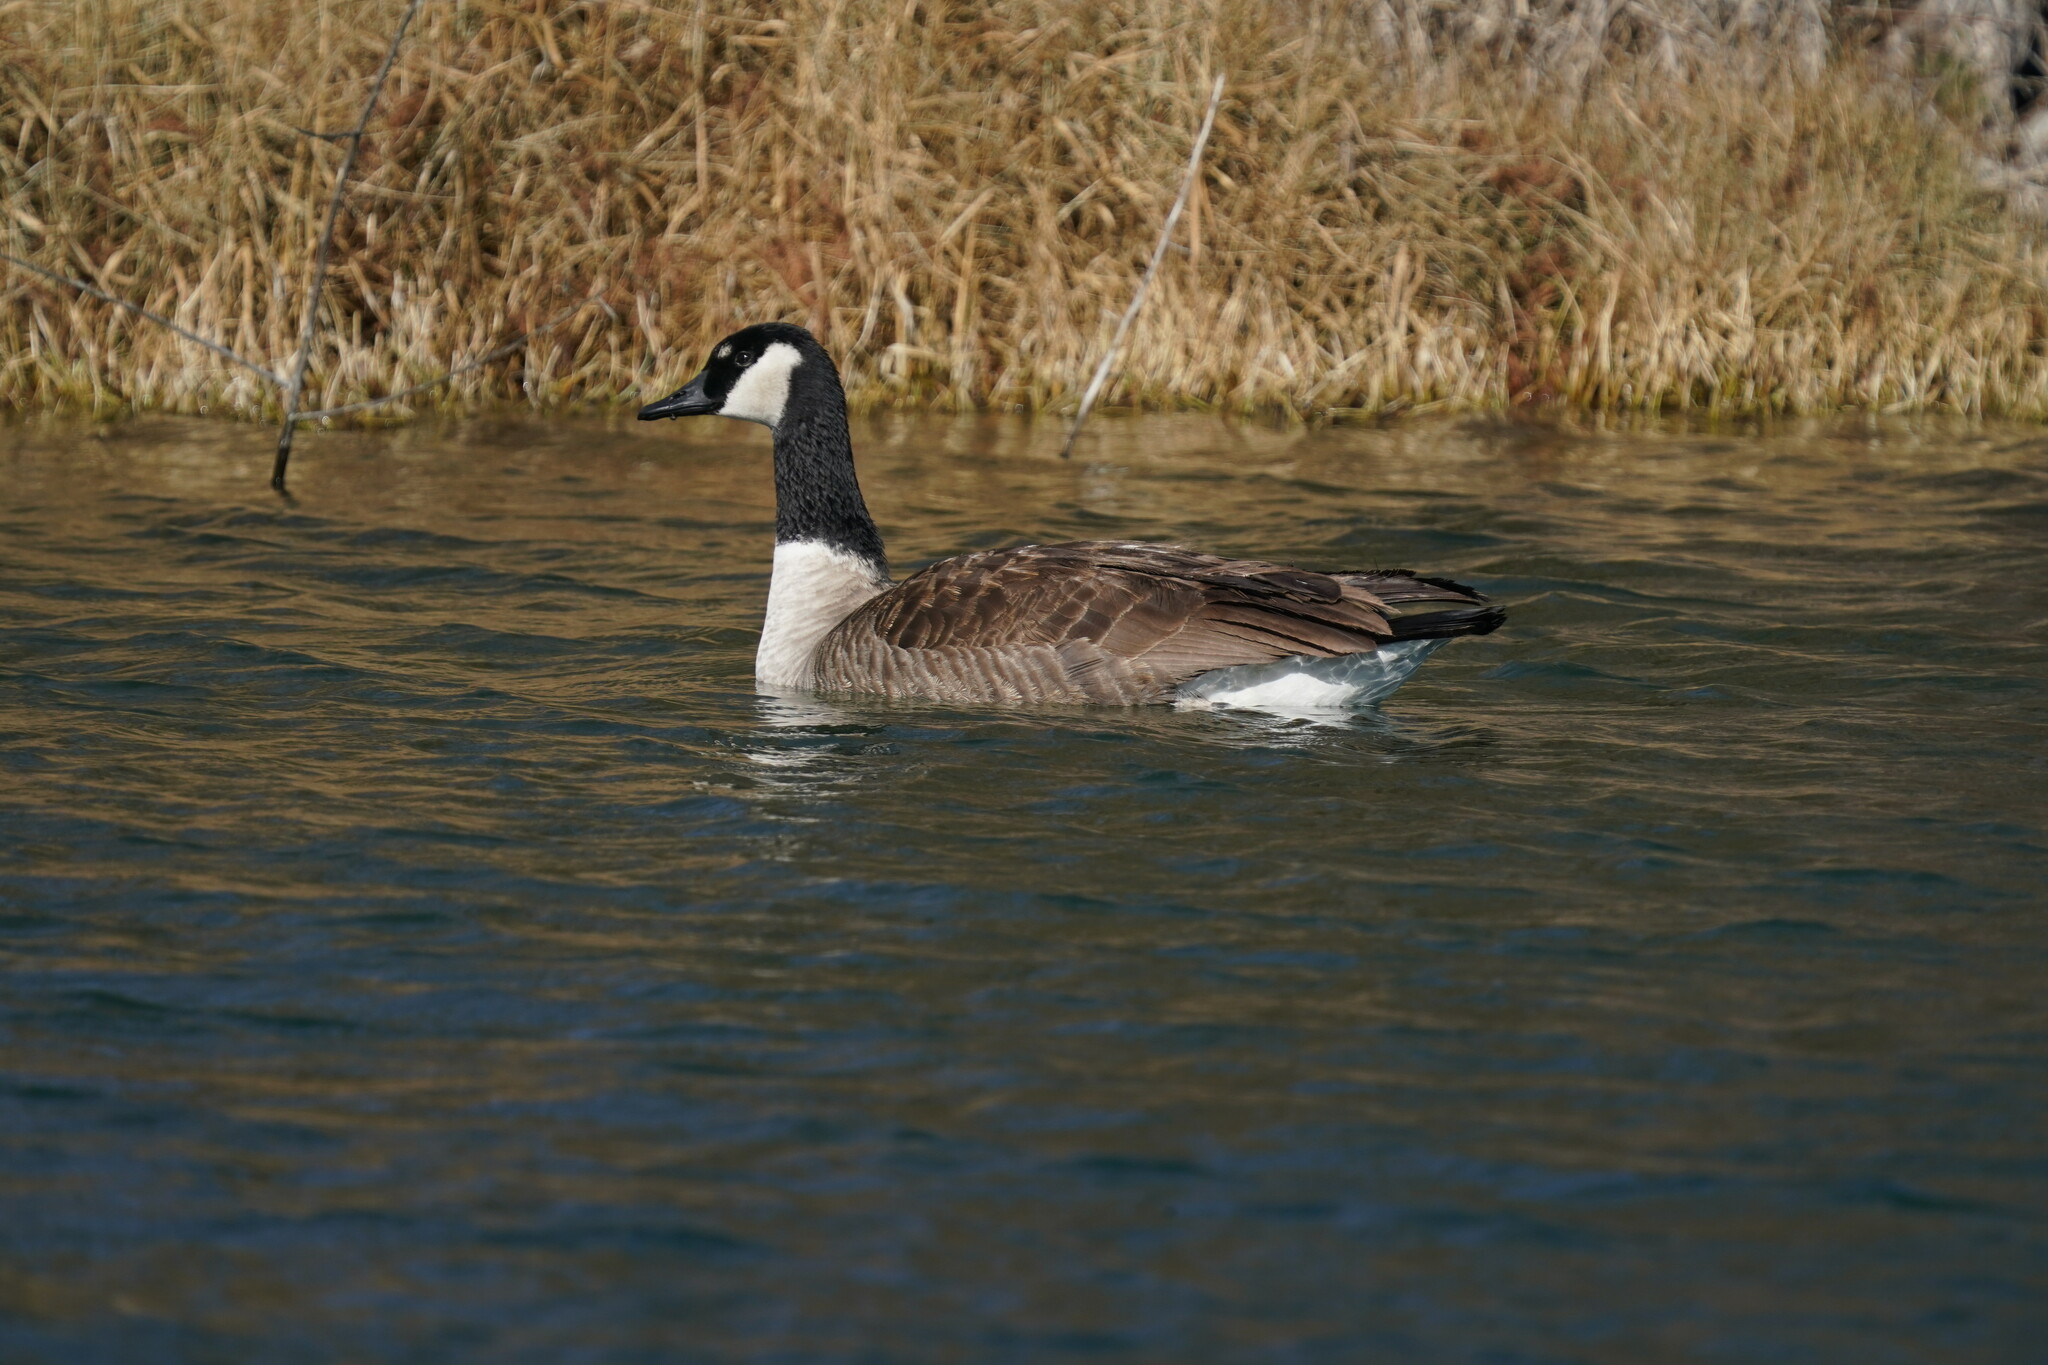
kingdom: Animalia
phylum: Chordata
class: Aves
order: Anseriformes
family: Anatidae
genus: Branta
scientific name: Branta canadensis
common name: Canada goose
